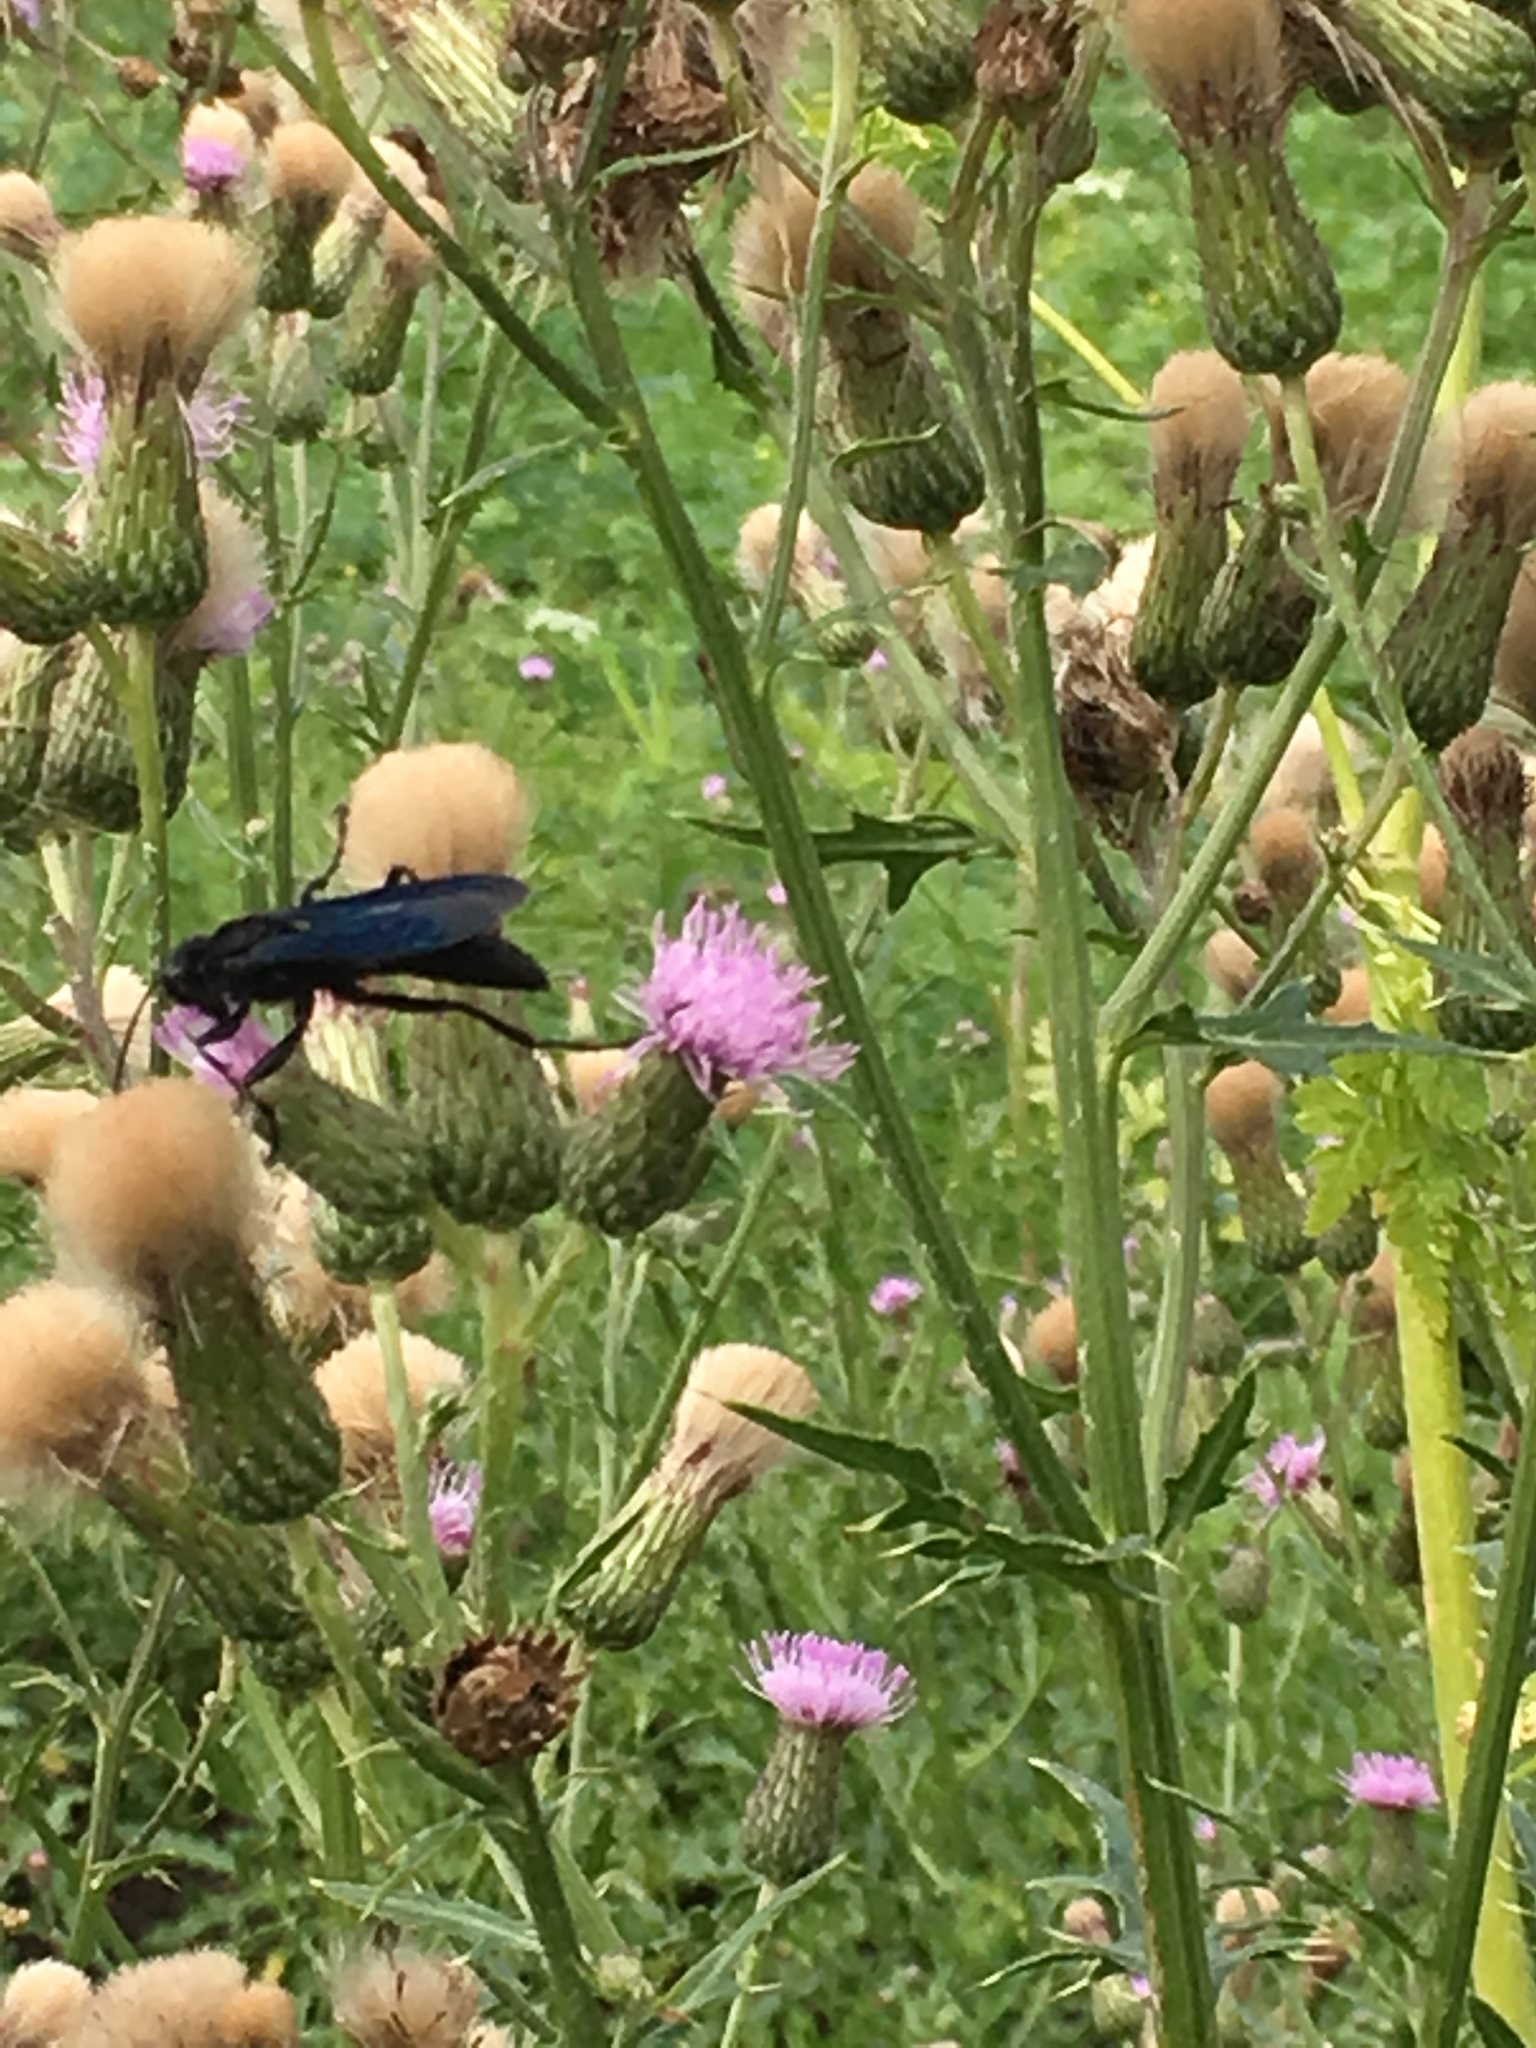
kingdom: Animalia
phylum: Arthropoda
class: Insecta
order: Hymenoptera
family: Sphecidae
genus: Sphex
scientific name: Sphex pensylvanicus
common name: Great black digger wasp
